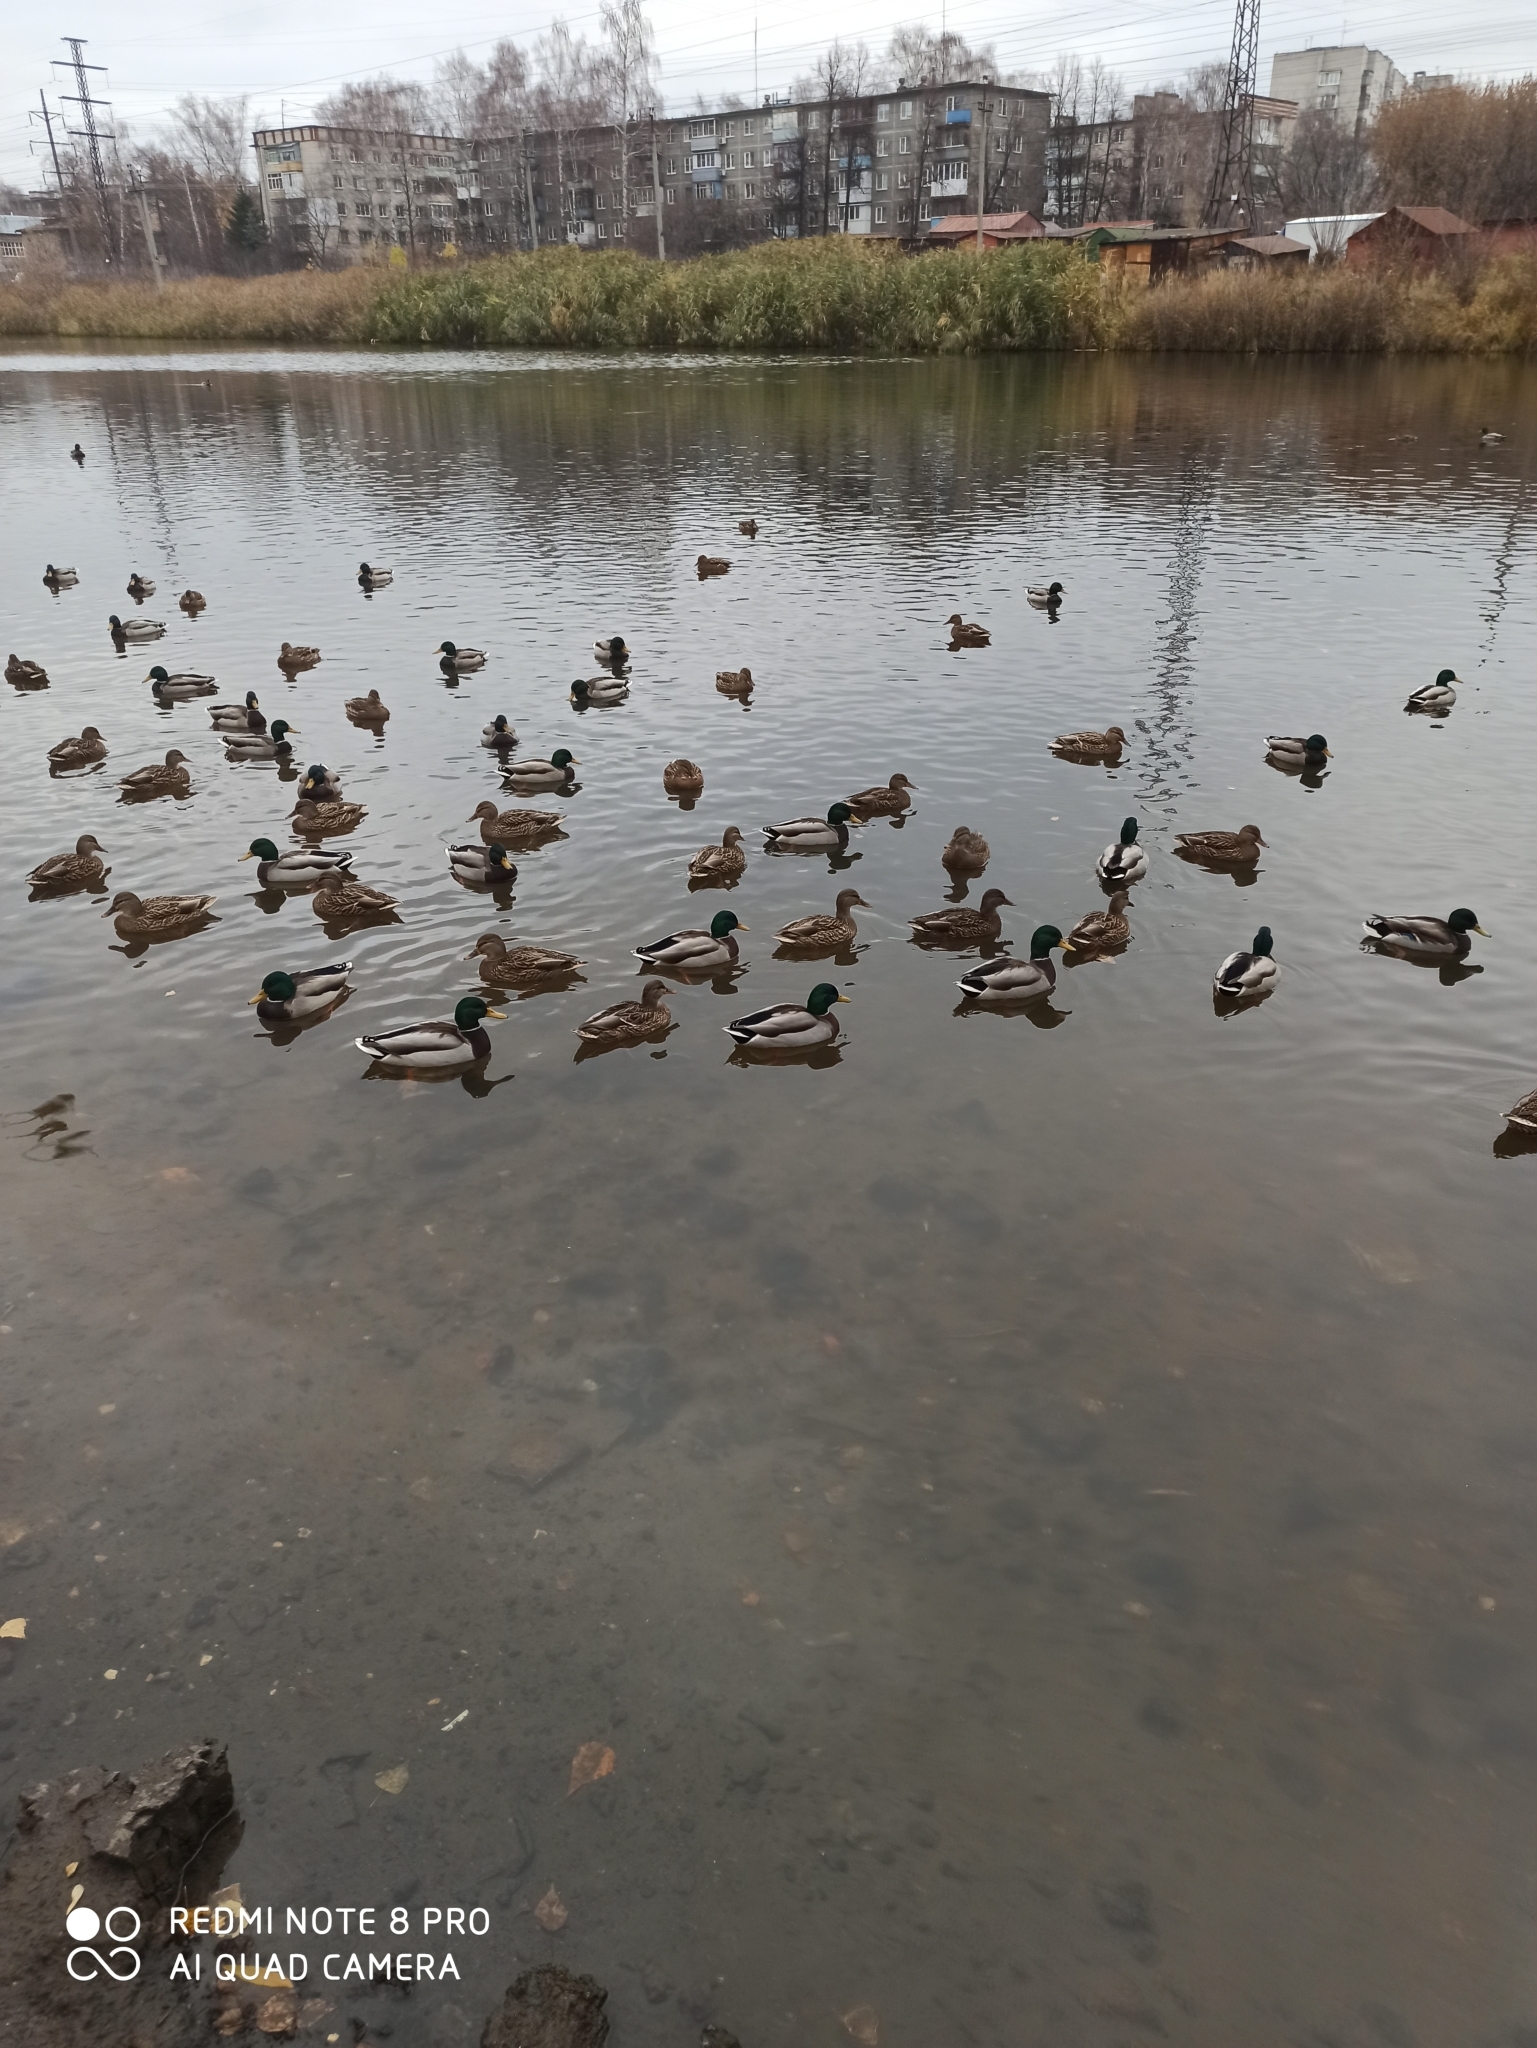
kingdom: Animalia
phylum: Chordata
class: Aves
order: Anseriformes
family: Anatidae
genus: Anas
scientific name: Anas platyrhynchos
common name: Mallard
